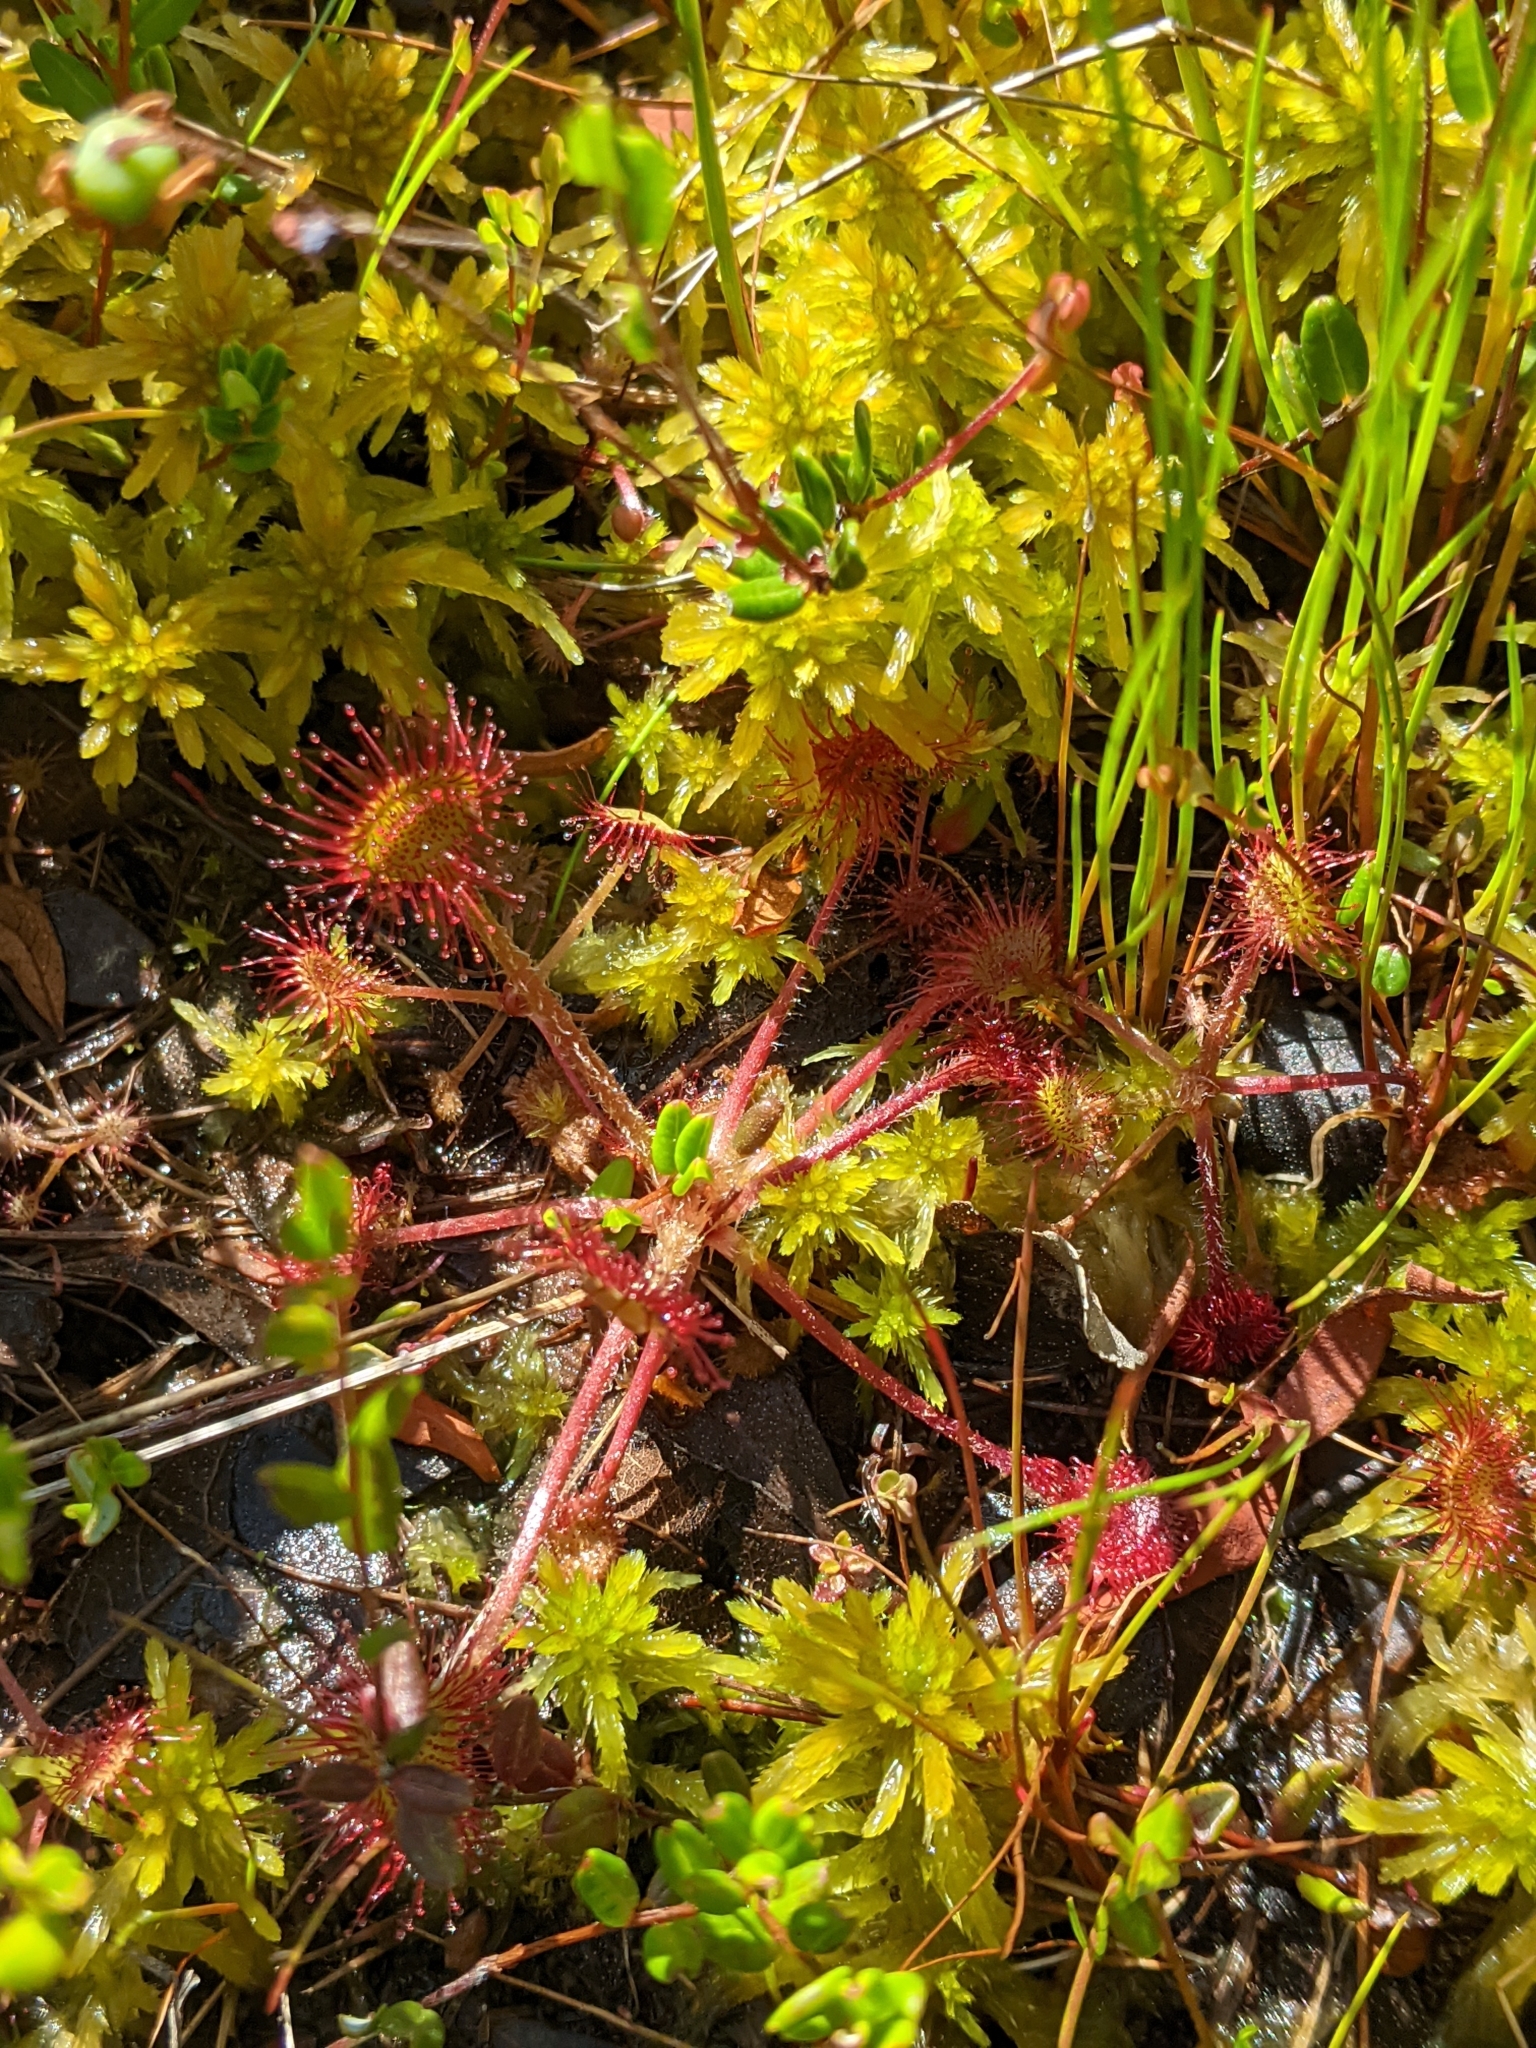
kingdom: Plantae
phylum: Tracheophyta
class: Magnoliopsida
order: Caryophyllales
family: Droseraceae
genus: Drosera
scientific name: Drosera rotundifolia
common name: Round-leaved sundew
